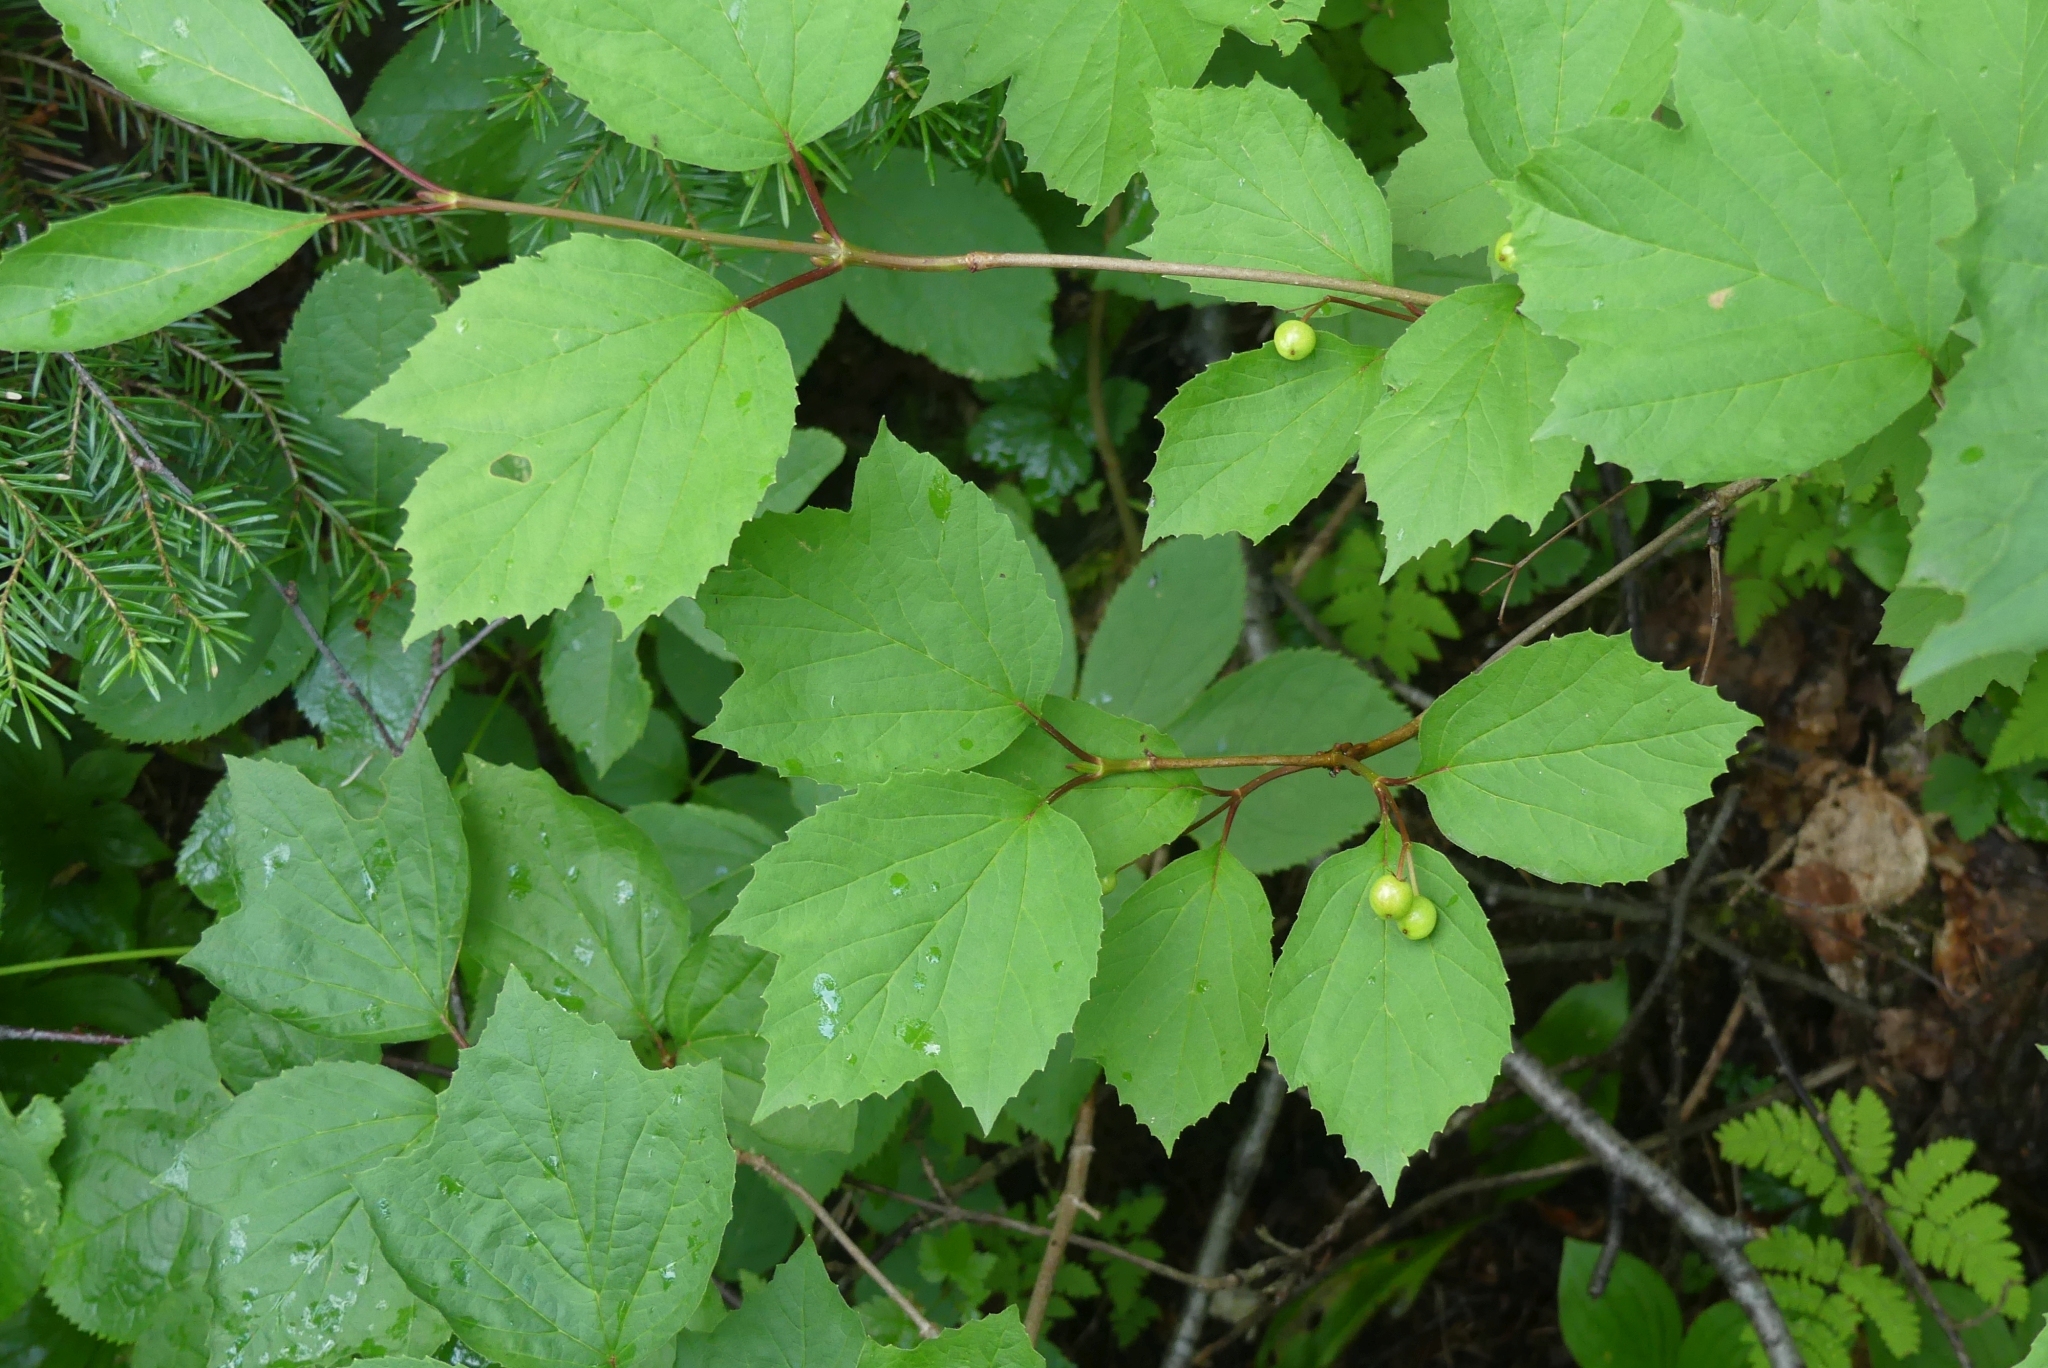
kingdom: Plantae
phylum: Tracheophyta
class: Magnoliopsida
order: Dipsacales
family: Viburnaceae
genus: Viburnum
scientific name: Viburnum edule
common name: Mooseberry
